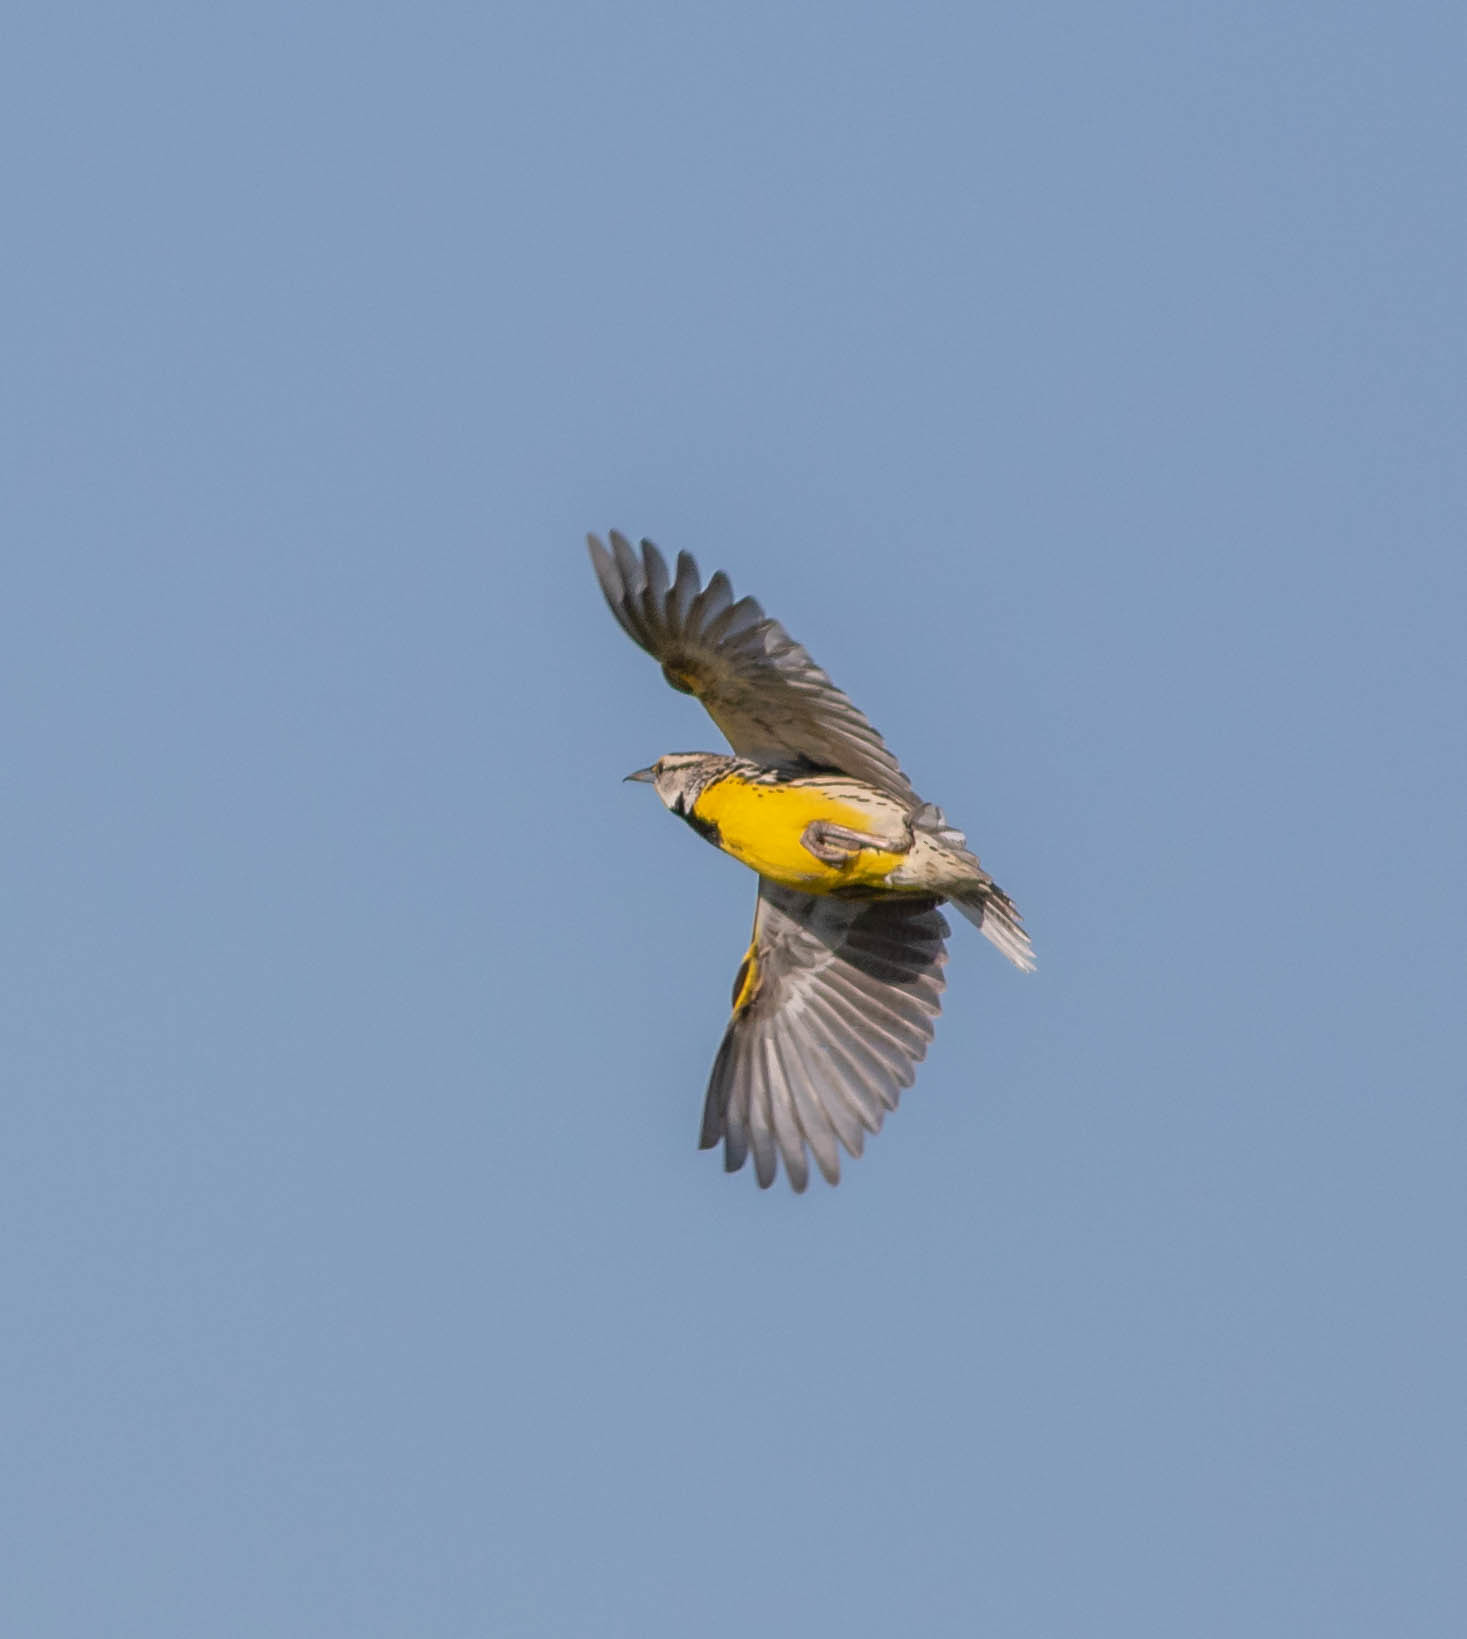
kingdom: Animalia
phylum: Chordata
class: Aves
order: Passeriformes
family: Icteridae
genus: Sturnella
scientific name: Sturnella magna
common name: Eastern meadowlark
